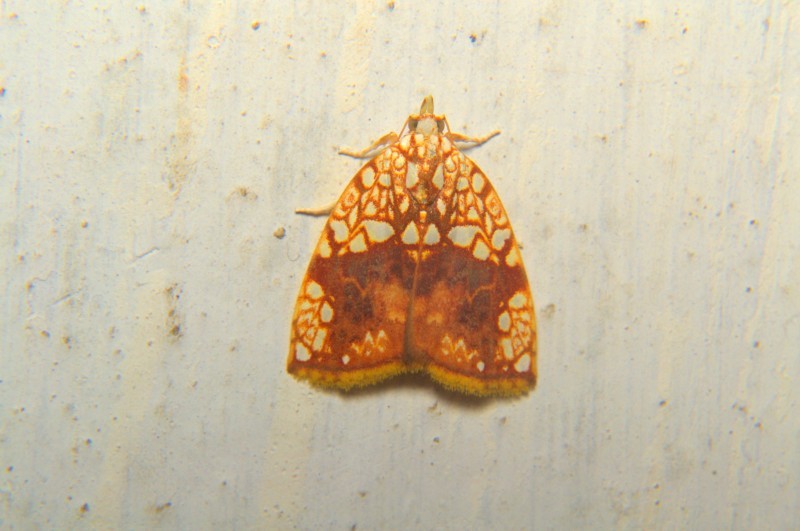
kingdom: Animalia
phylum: Arthropoda
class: Insecta
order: Lepidoptera
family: Nolidae
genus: Gabala
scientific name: Gabala argentata
